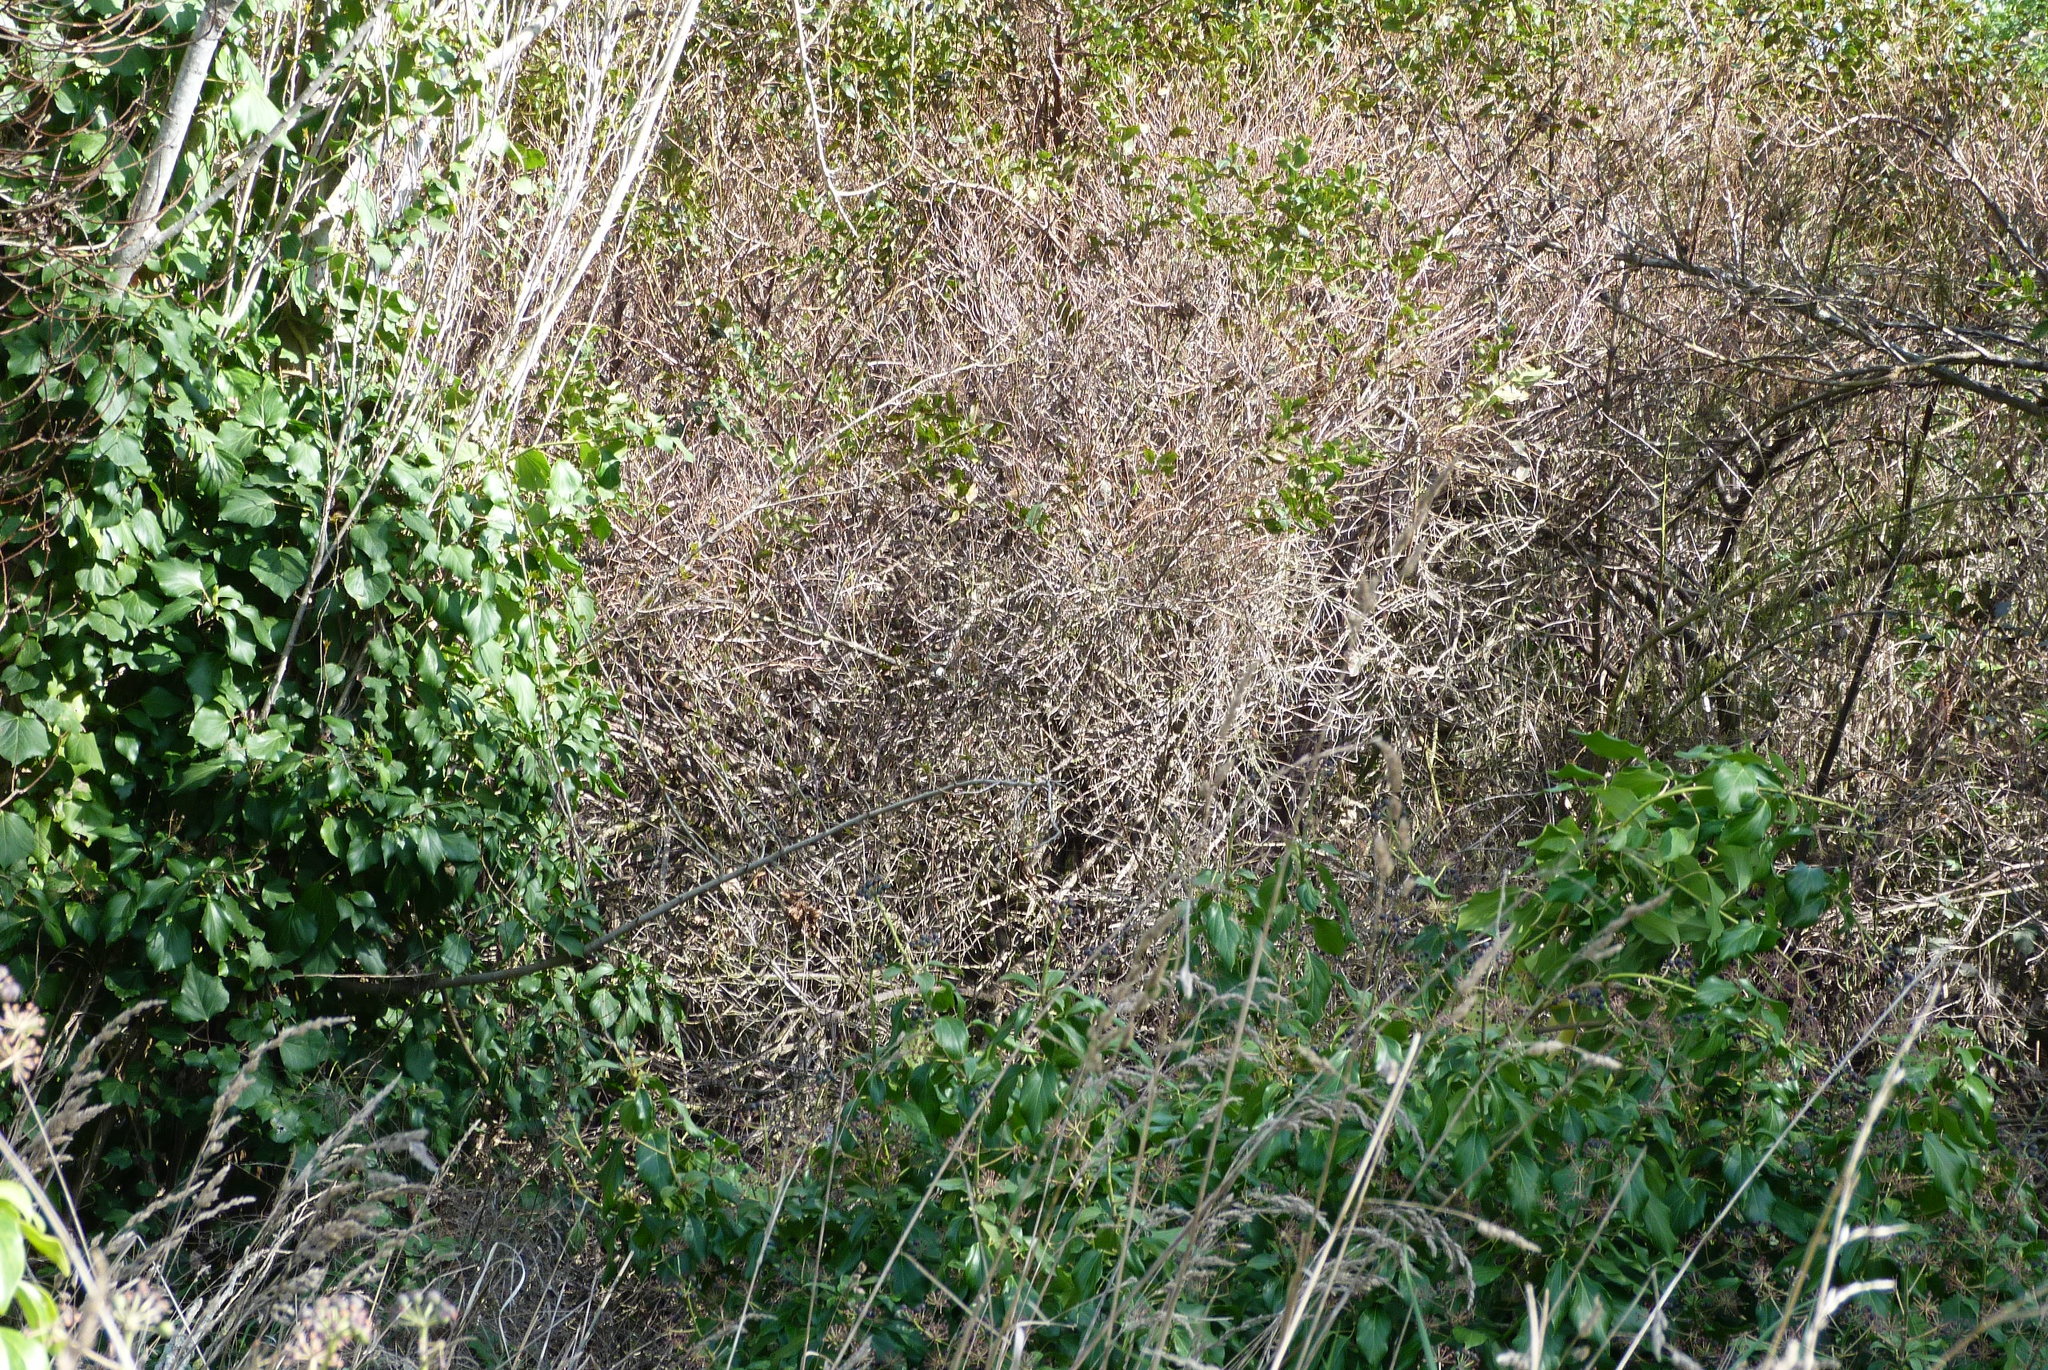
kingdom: Plantae
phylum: Tracheophyta
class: Magnoliopsida
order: Apiales
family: Araliaceae
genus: Hedera
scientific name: Hedera helix
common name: Ivy
